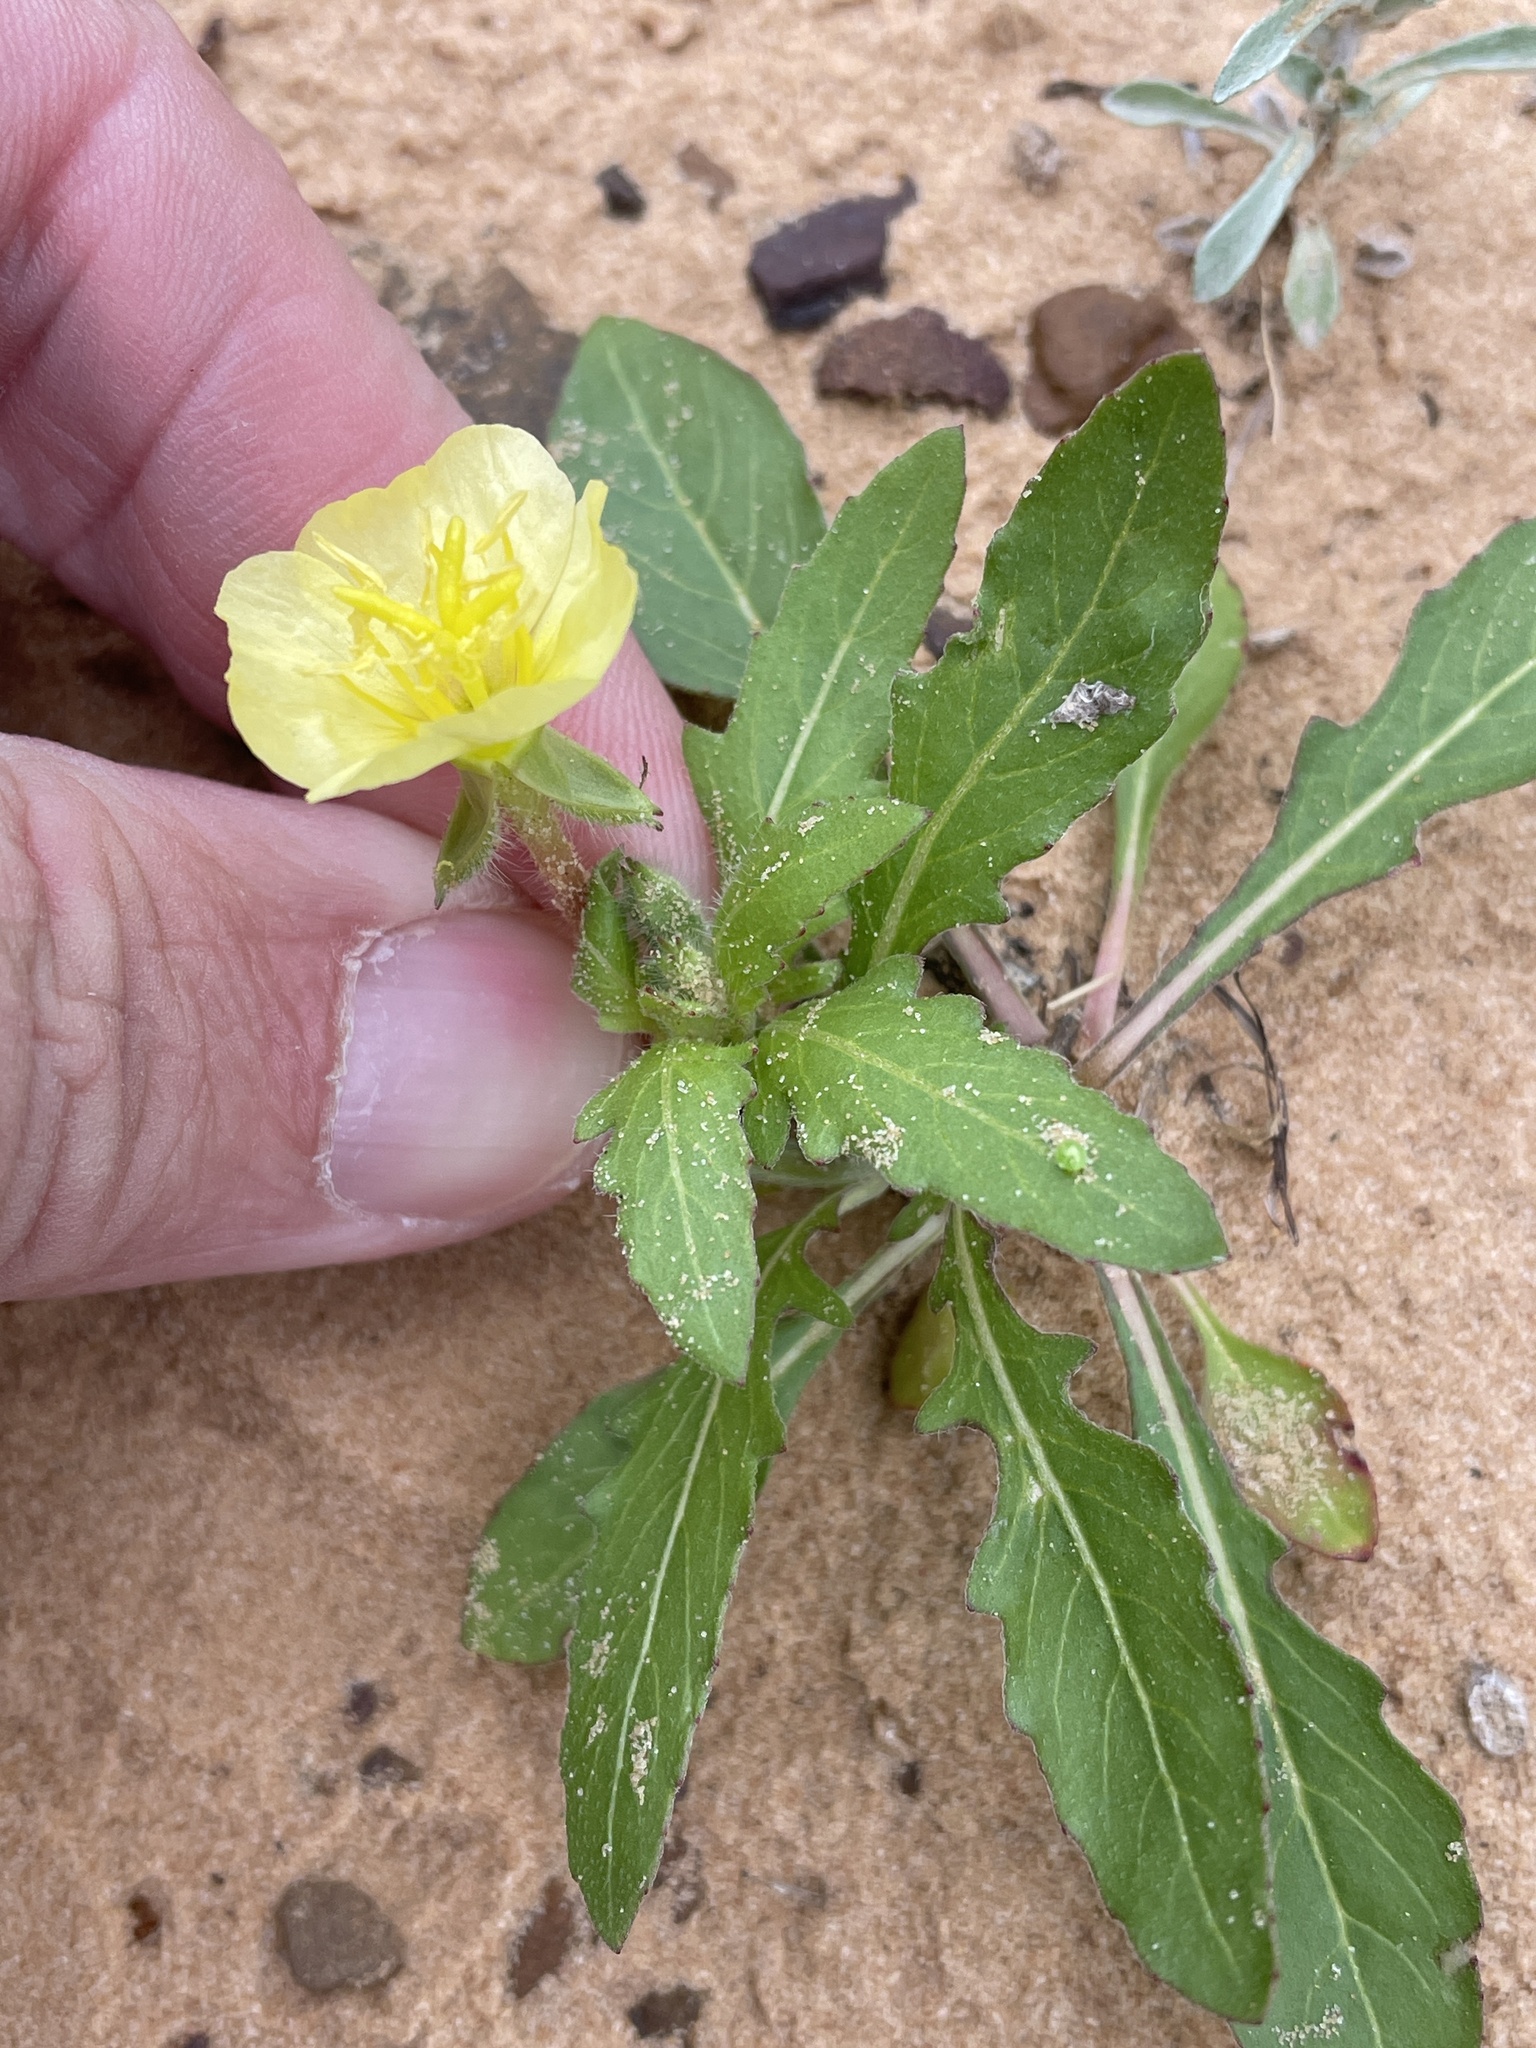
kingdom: Plantae
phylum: Tracheophyta
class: Magnoliopsida
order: Myrtales
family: Onagraceae
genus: Oenothera
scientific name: Oenothera laciniata
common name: Cut-leaved evening-primrose
